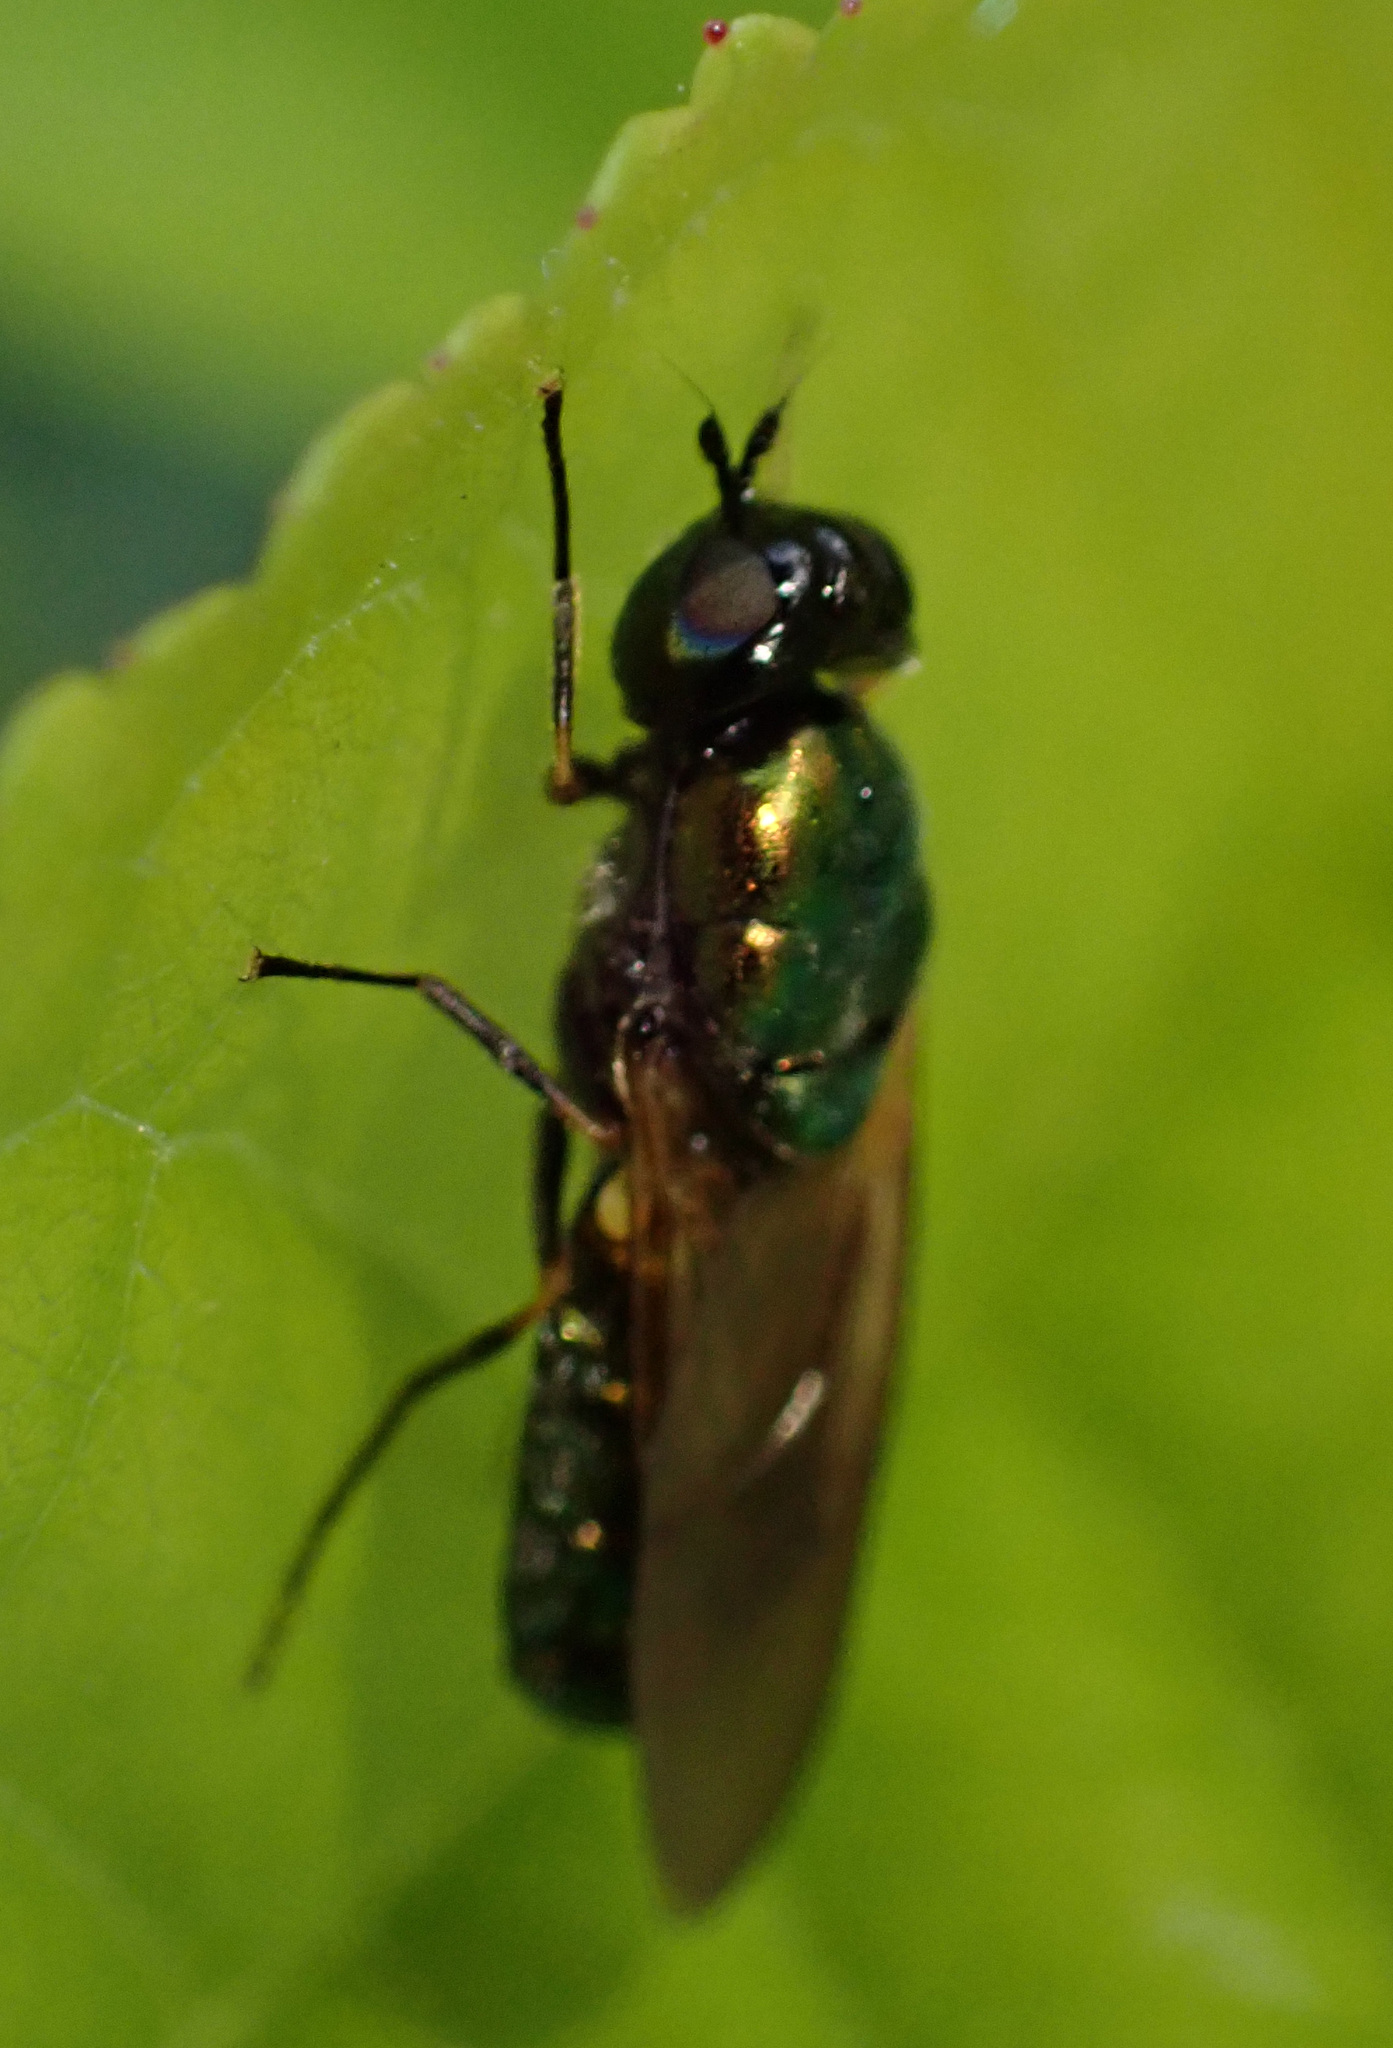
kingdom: Animalia
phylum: Arthropoda
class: Insecta
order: Diptera
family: Stratiomyidae
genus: Chloromyia
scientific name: Chloromyia formosa
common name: Soldier fly
